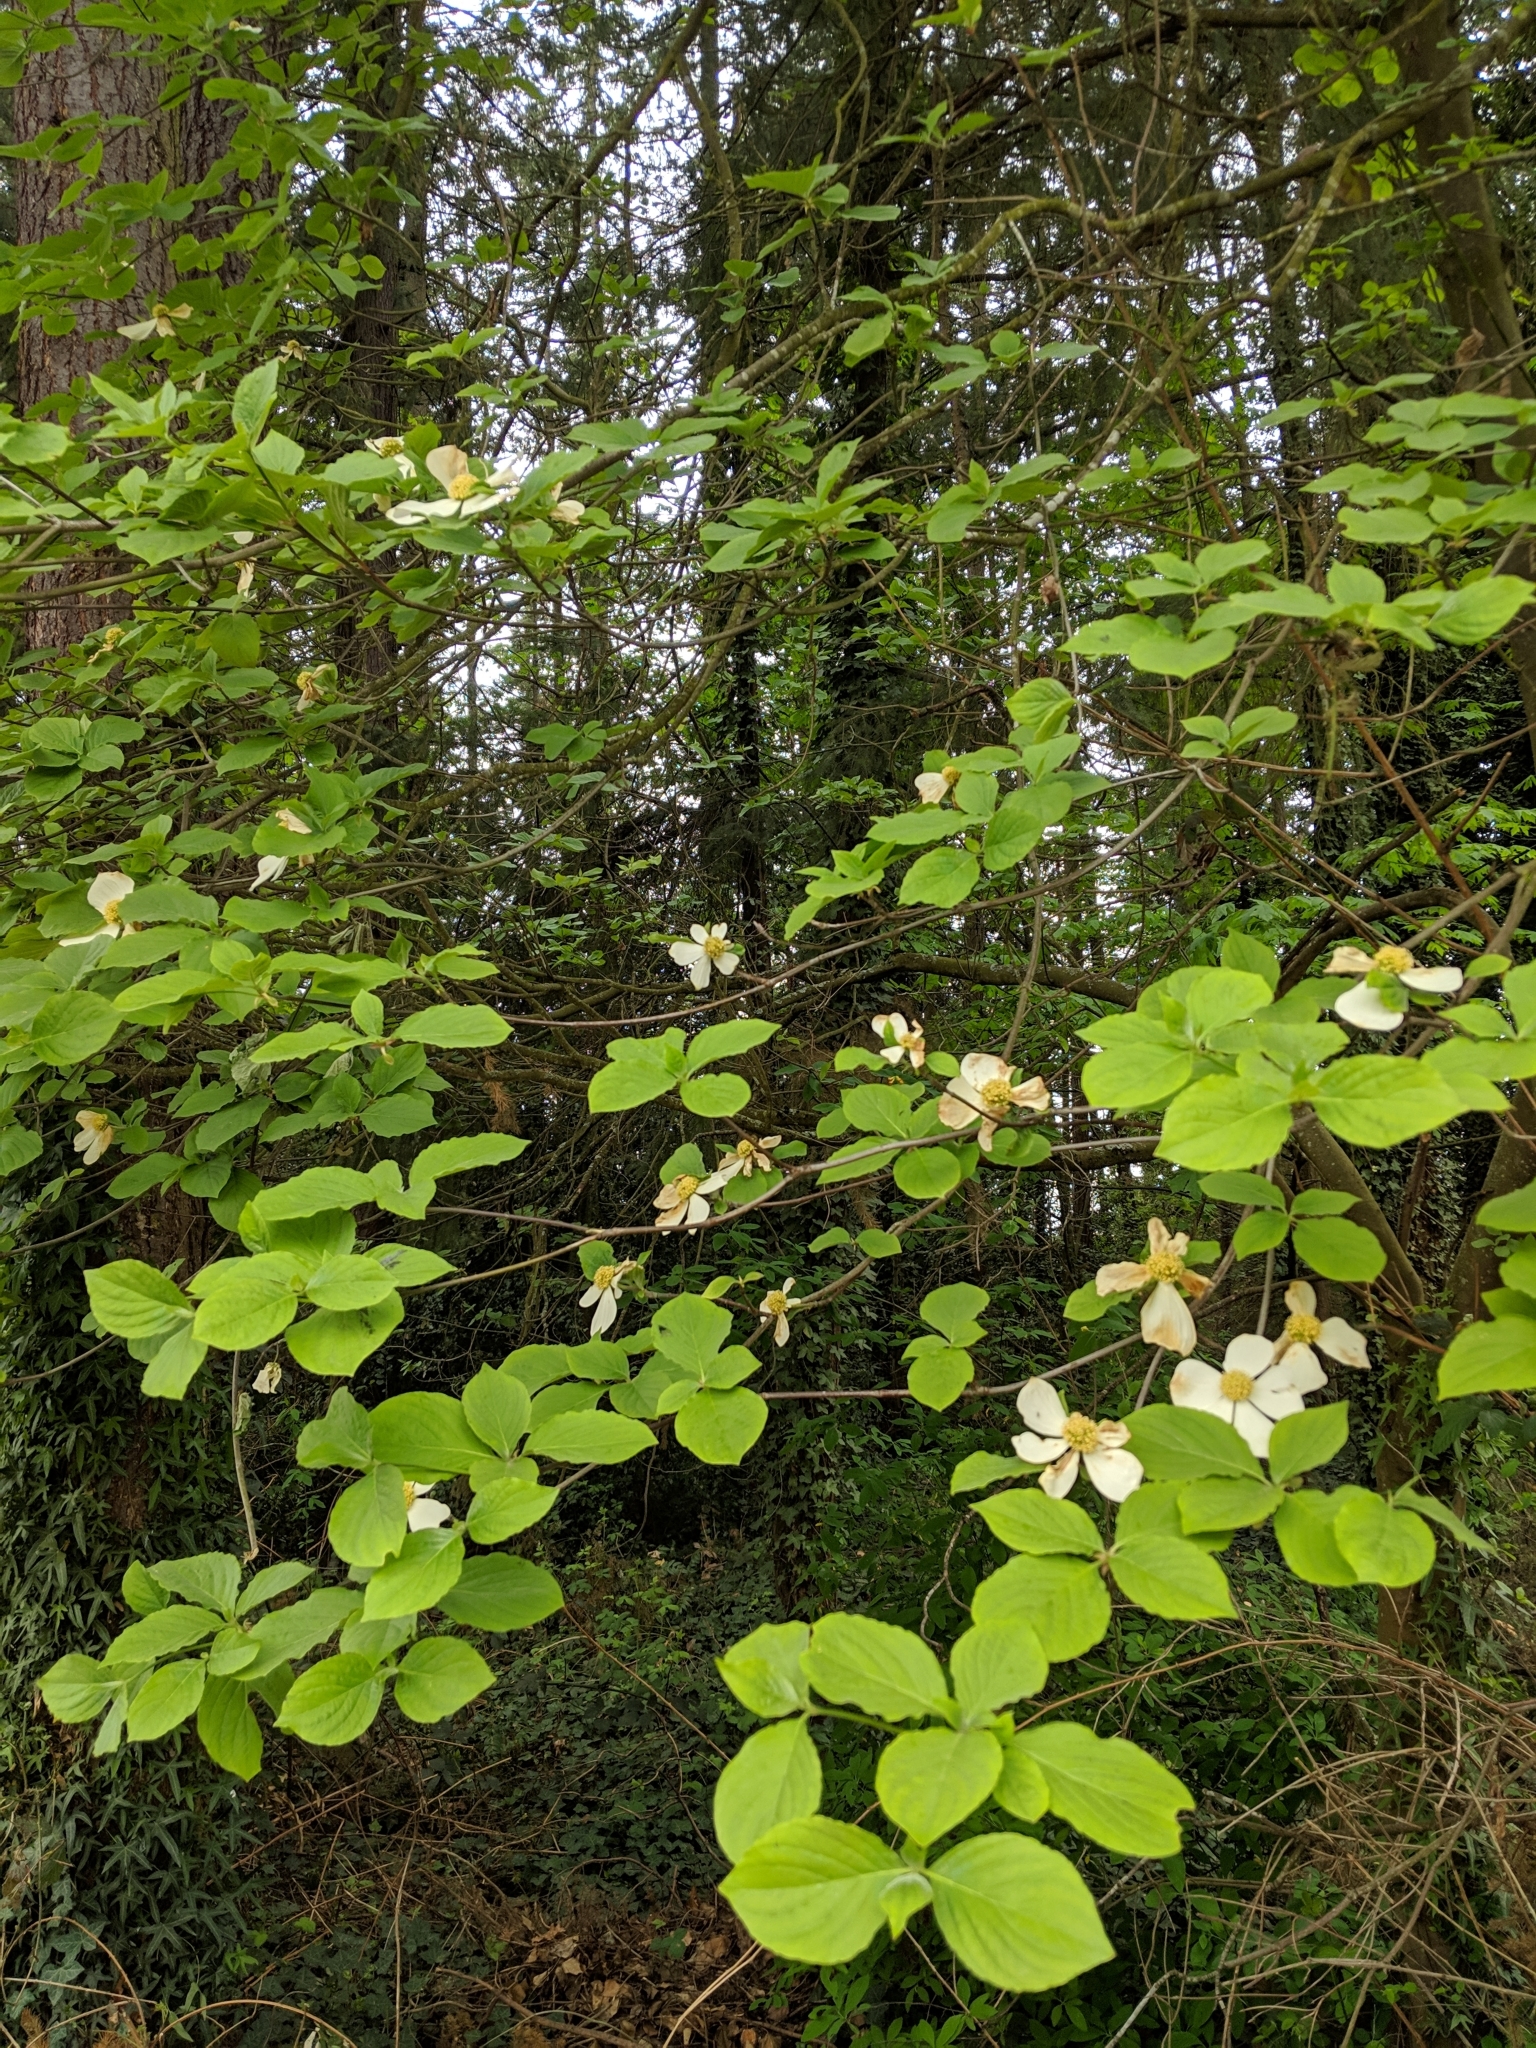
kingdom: Plantae
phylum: Tracheophyta
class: Magnoliopsida
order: Cornales
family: Cornaceae
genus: Cornus
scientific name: Cornus nuttallii
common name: Pacific dogwood
